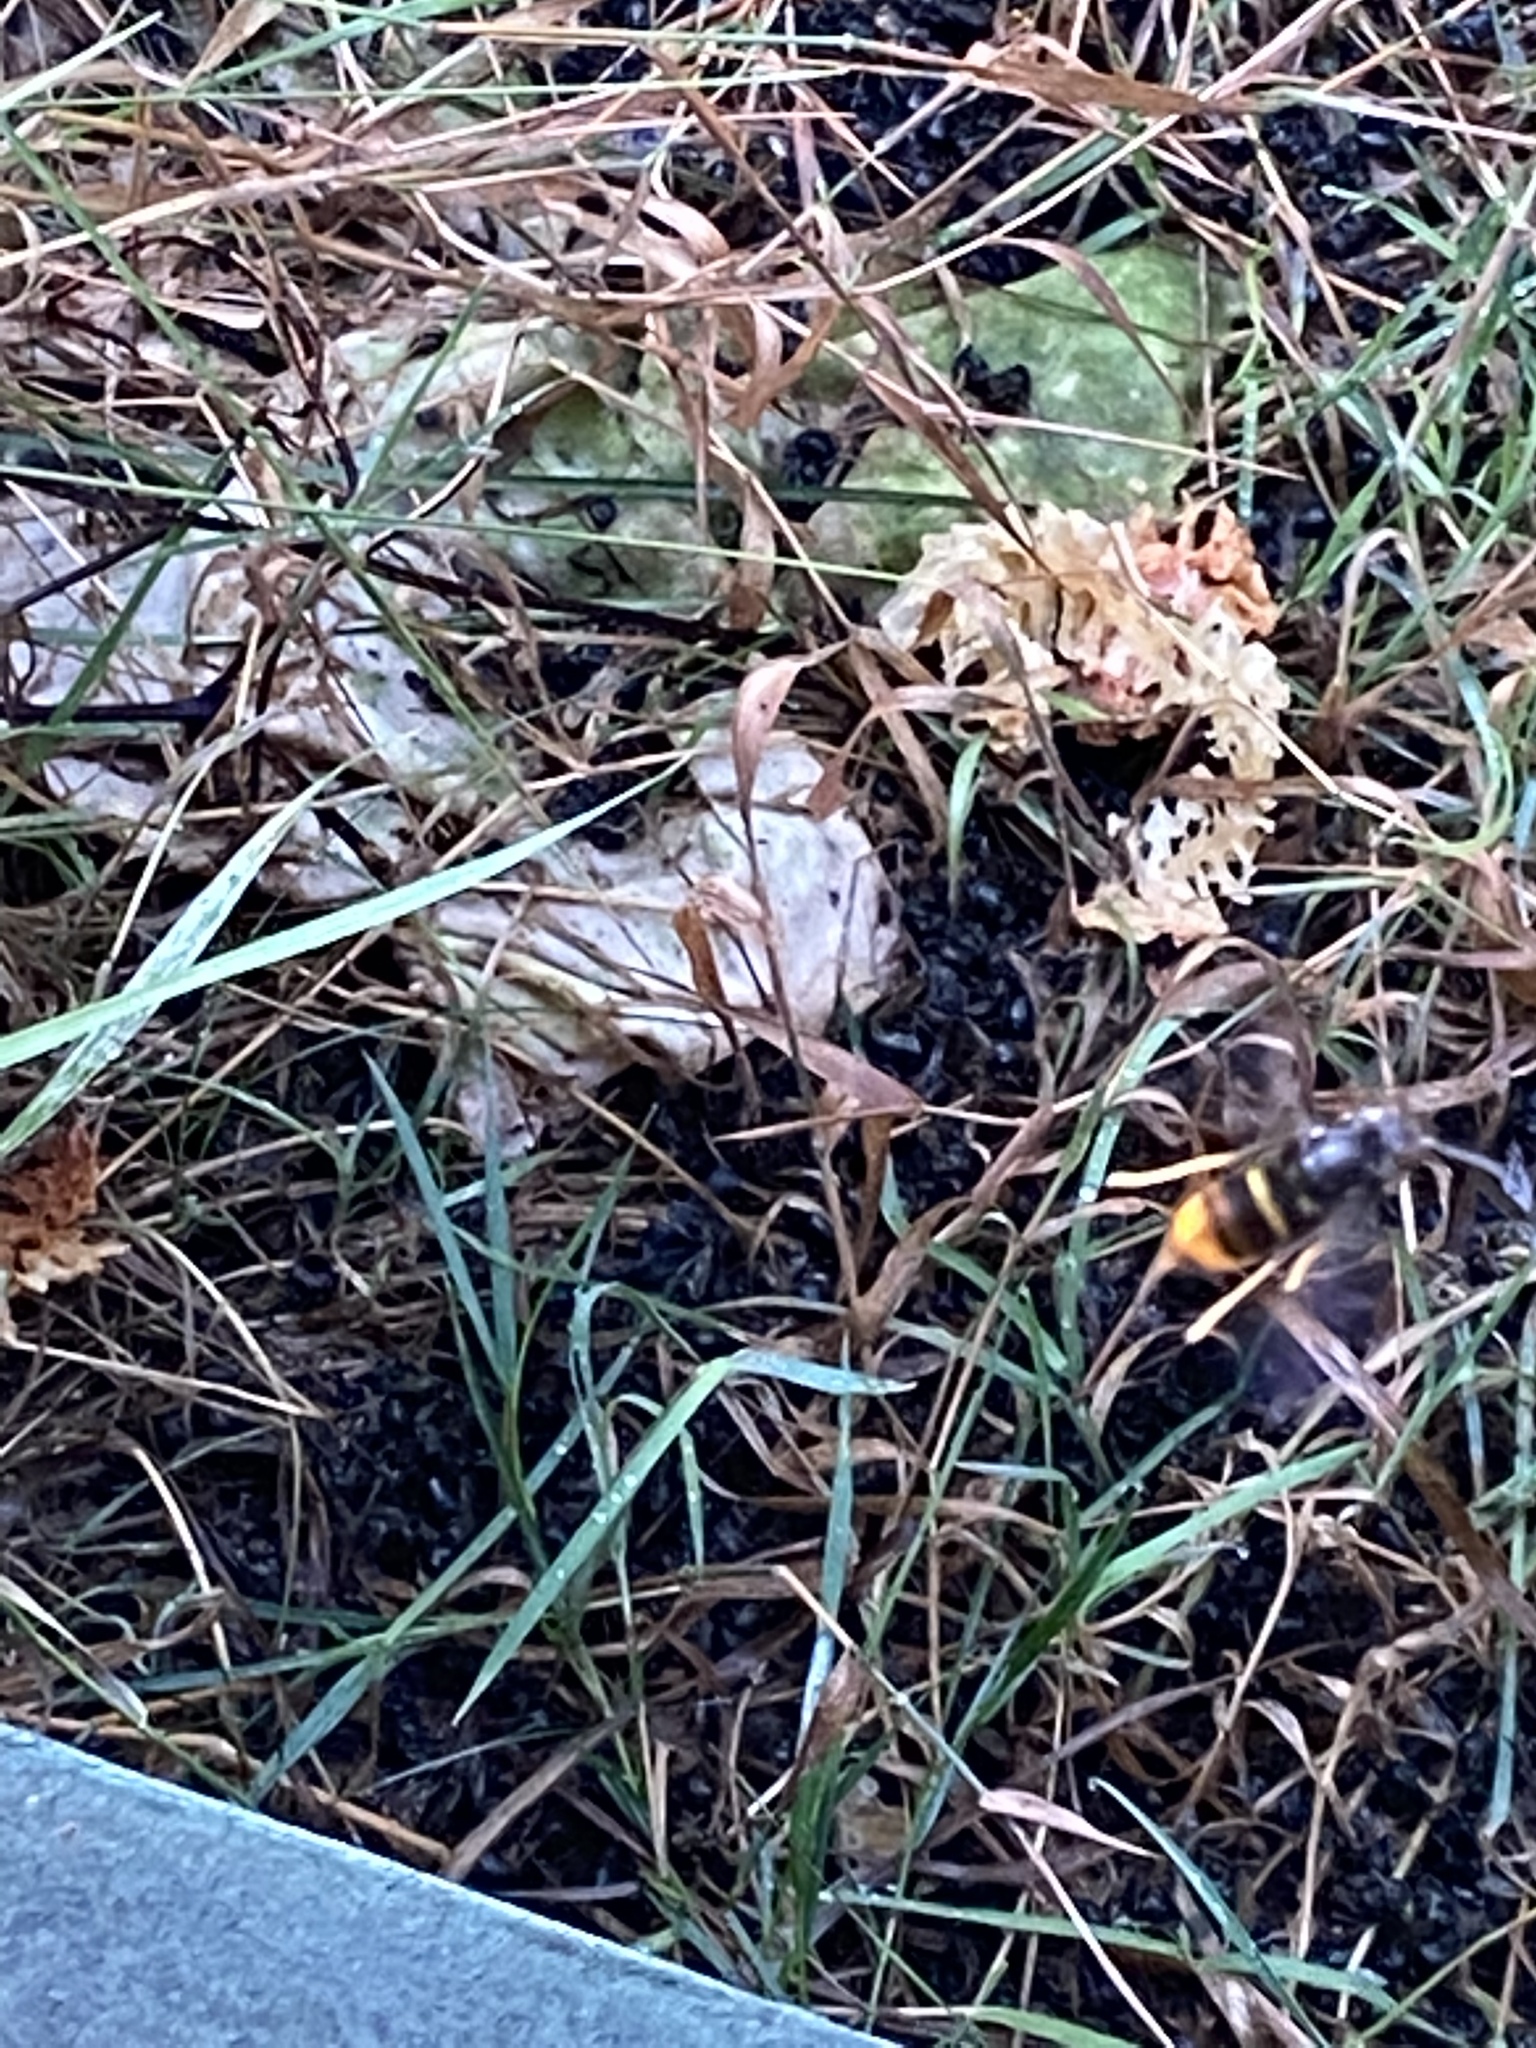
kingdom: Animalia
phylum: Arthropoda
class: Insecta
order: Hymenoptera
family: Vespidae
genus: Vespa
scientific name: Vespa velutina
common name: Asian hornet
